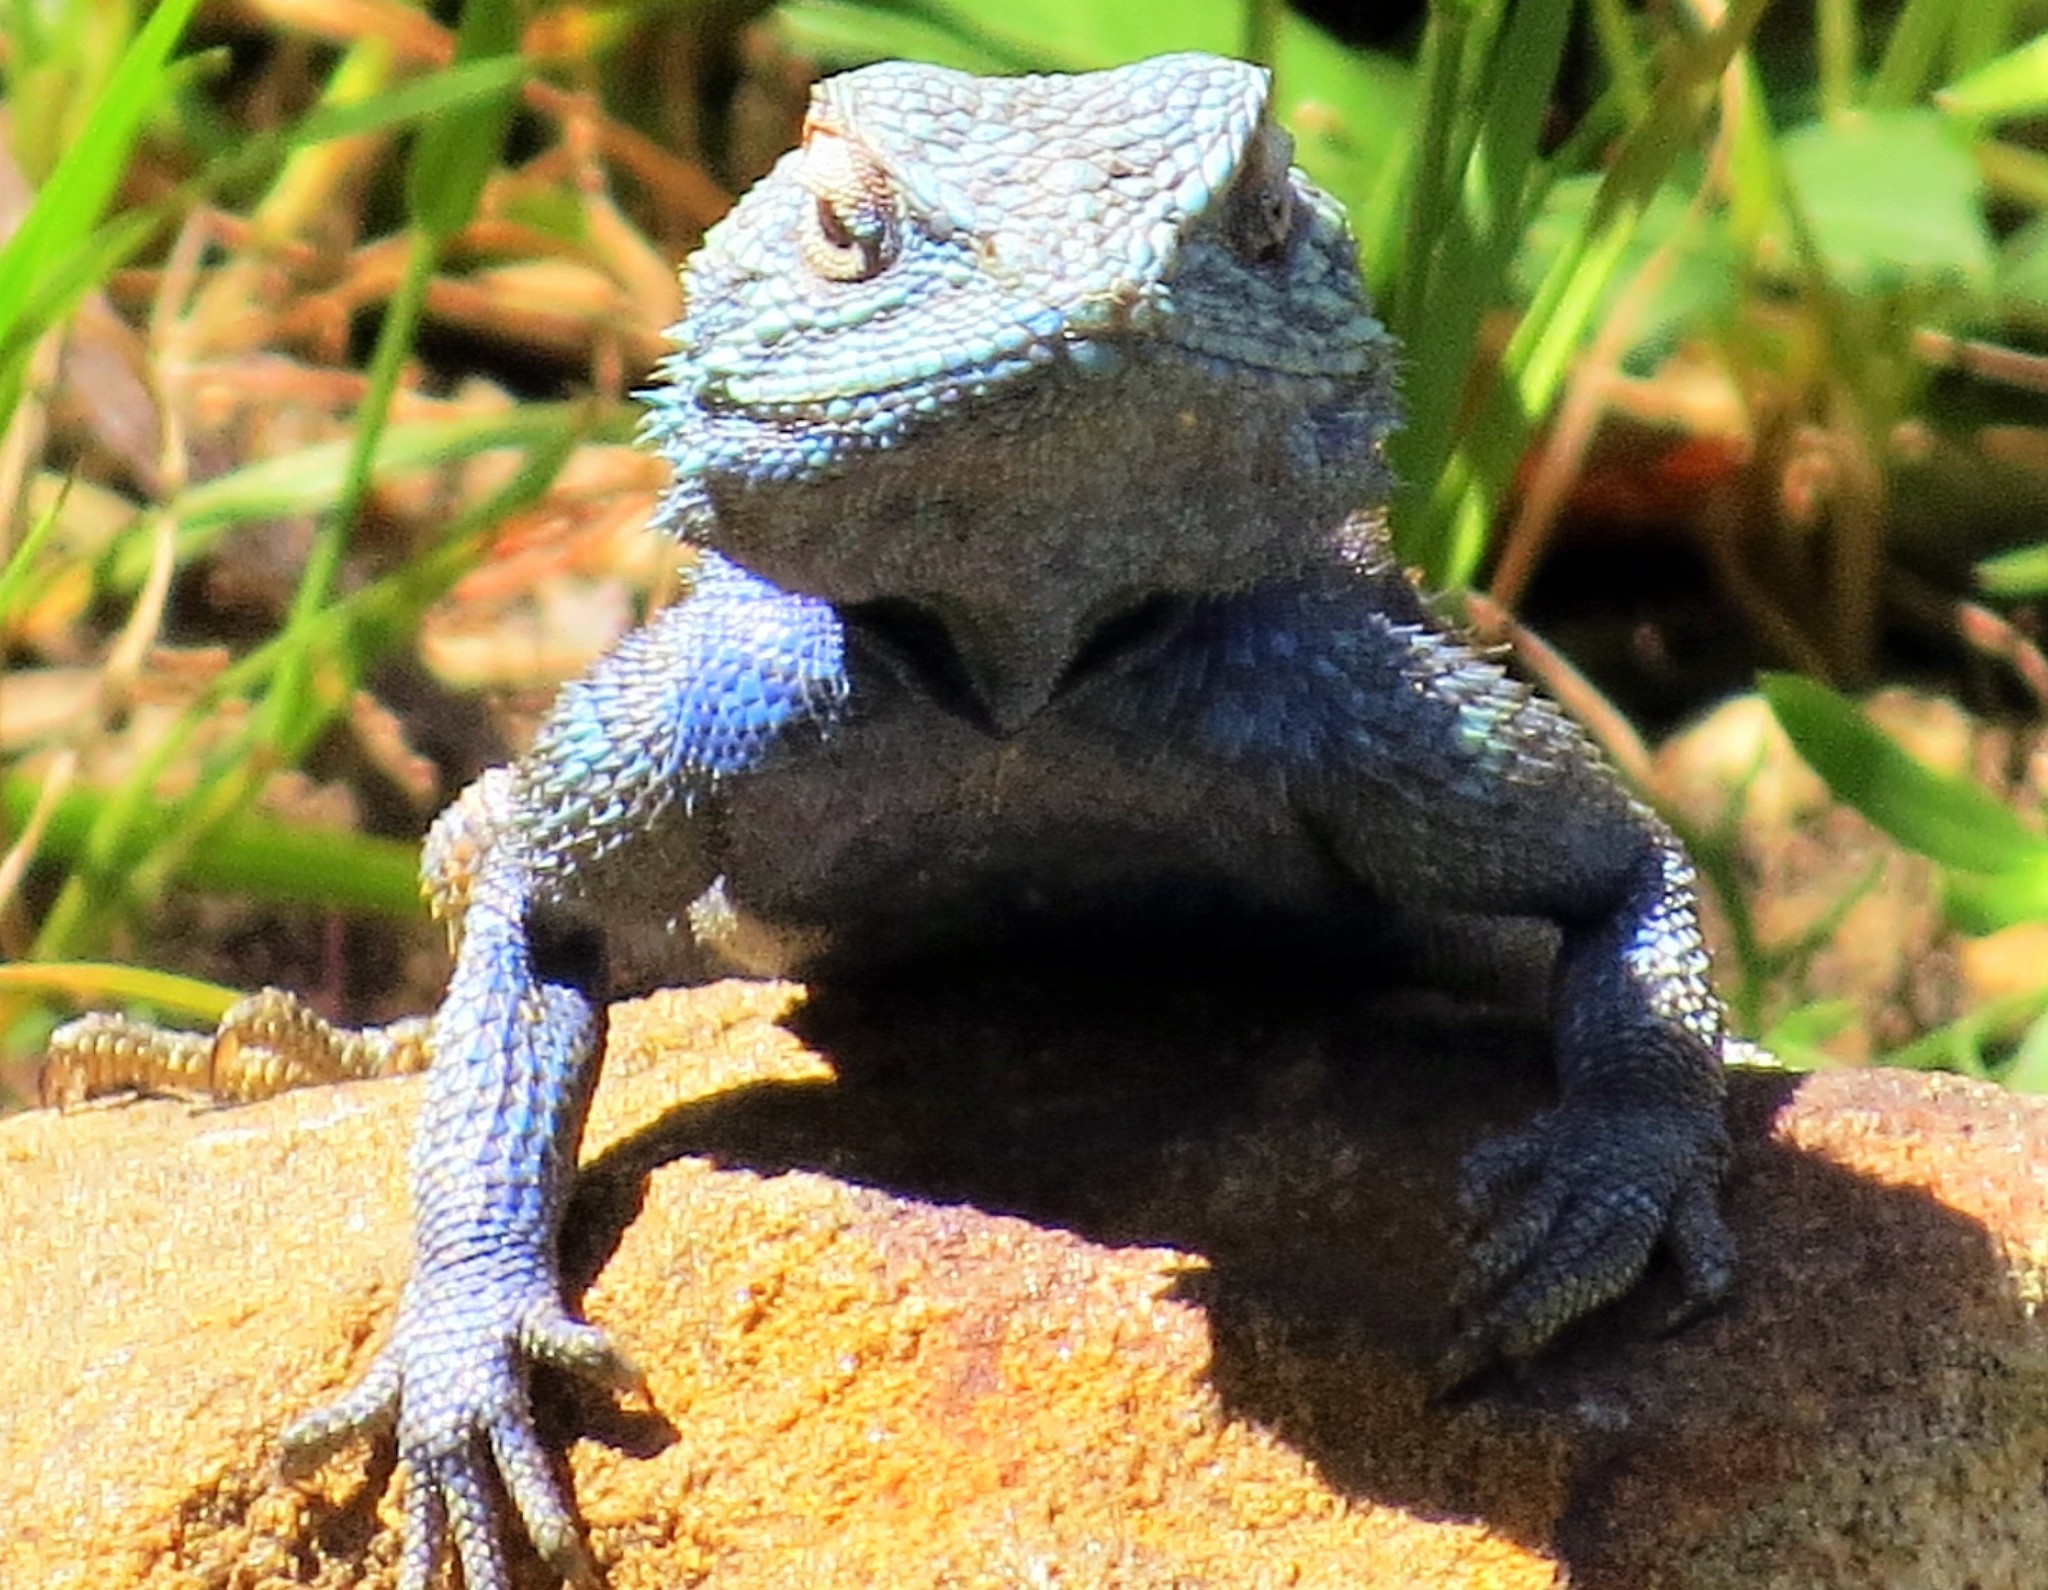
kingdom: Animalia
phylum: Chordata
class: Squamata
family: Agamidae
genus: Agama
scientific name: Agama atra
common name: Southern african rock agama
